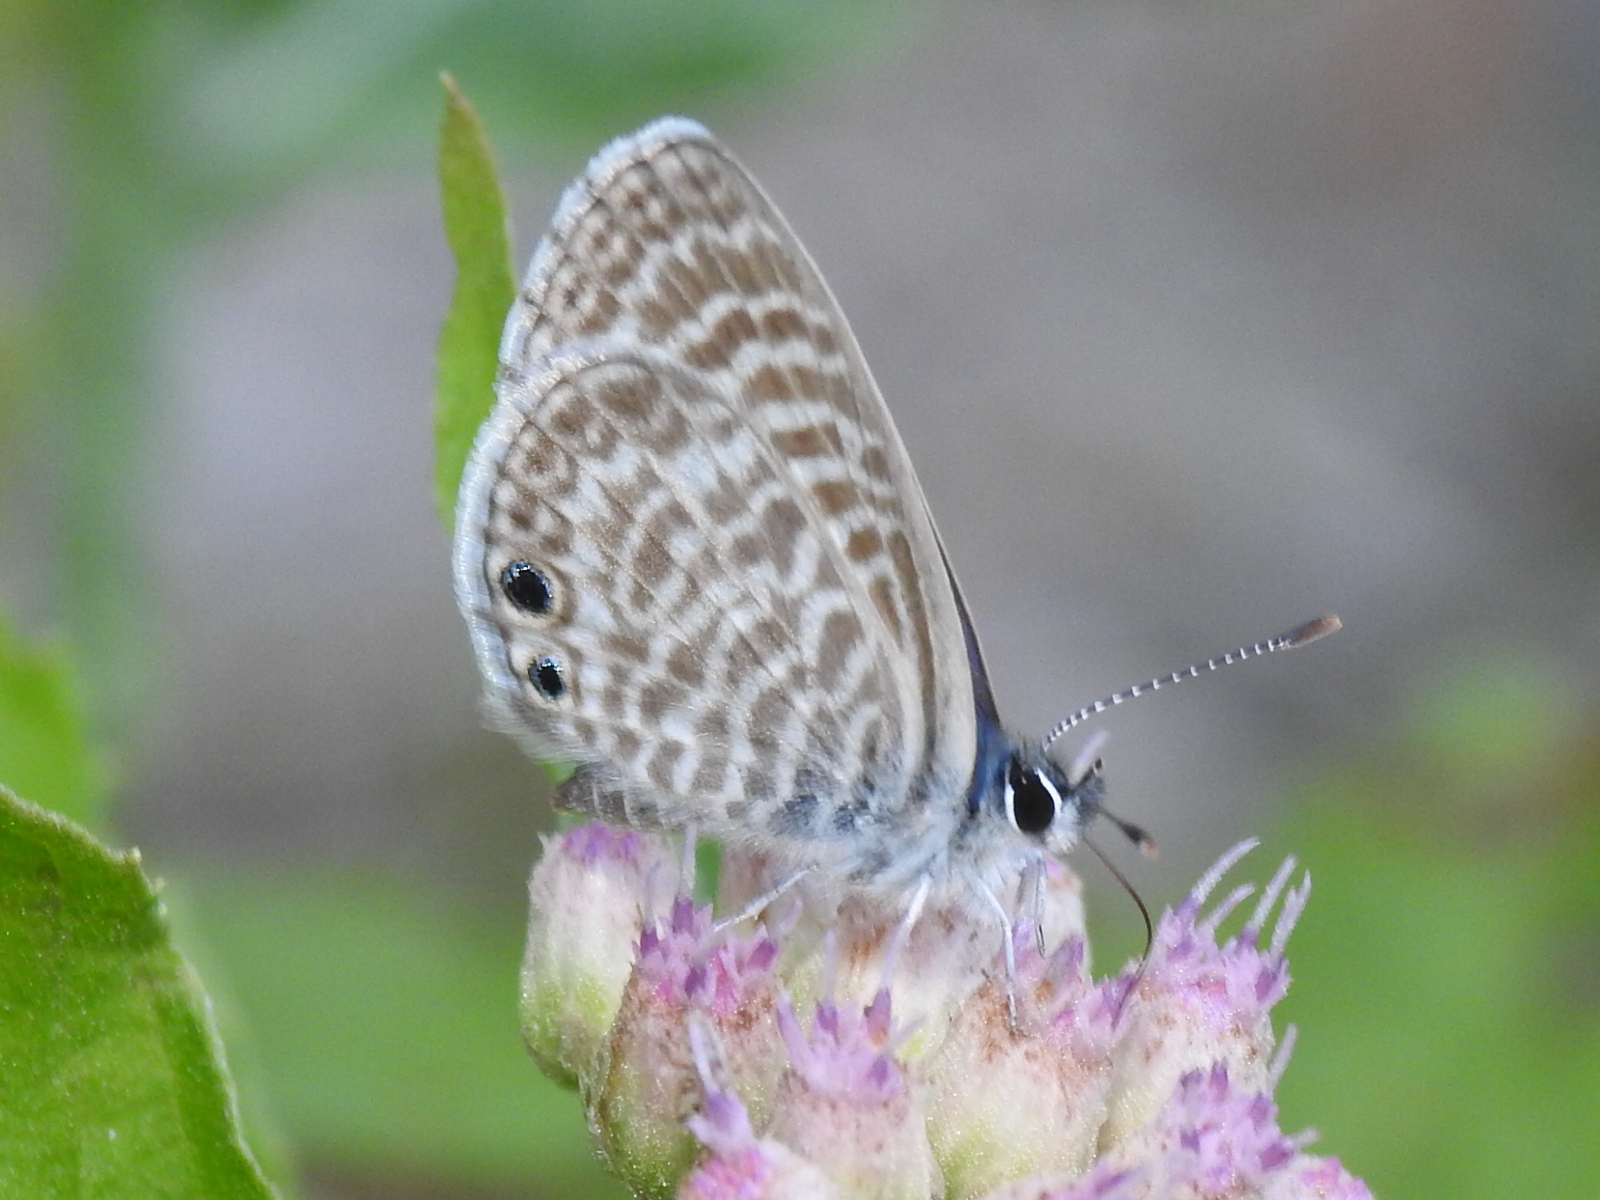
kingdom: Animalia
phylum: Arthropoda
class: Insecta
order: Lepidoptera
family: Lycaenidae
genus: Leptotes
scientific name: Leptotes marina
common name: Marine blue
